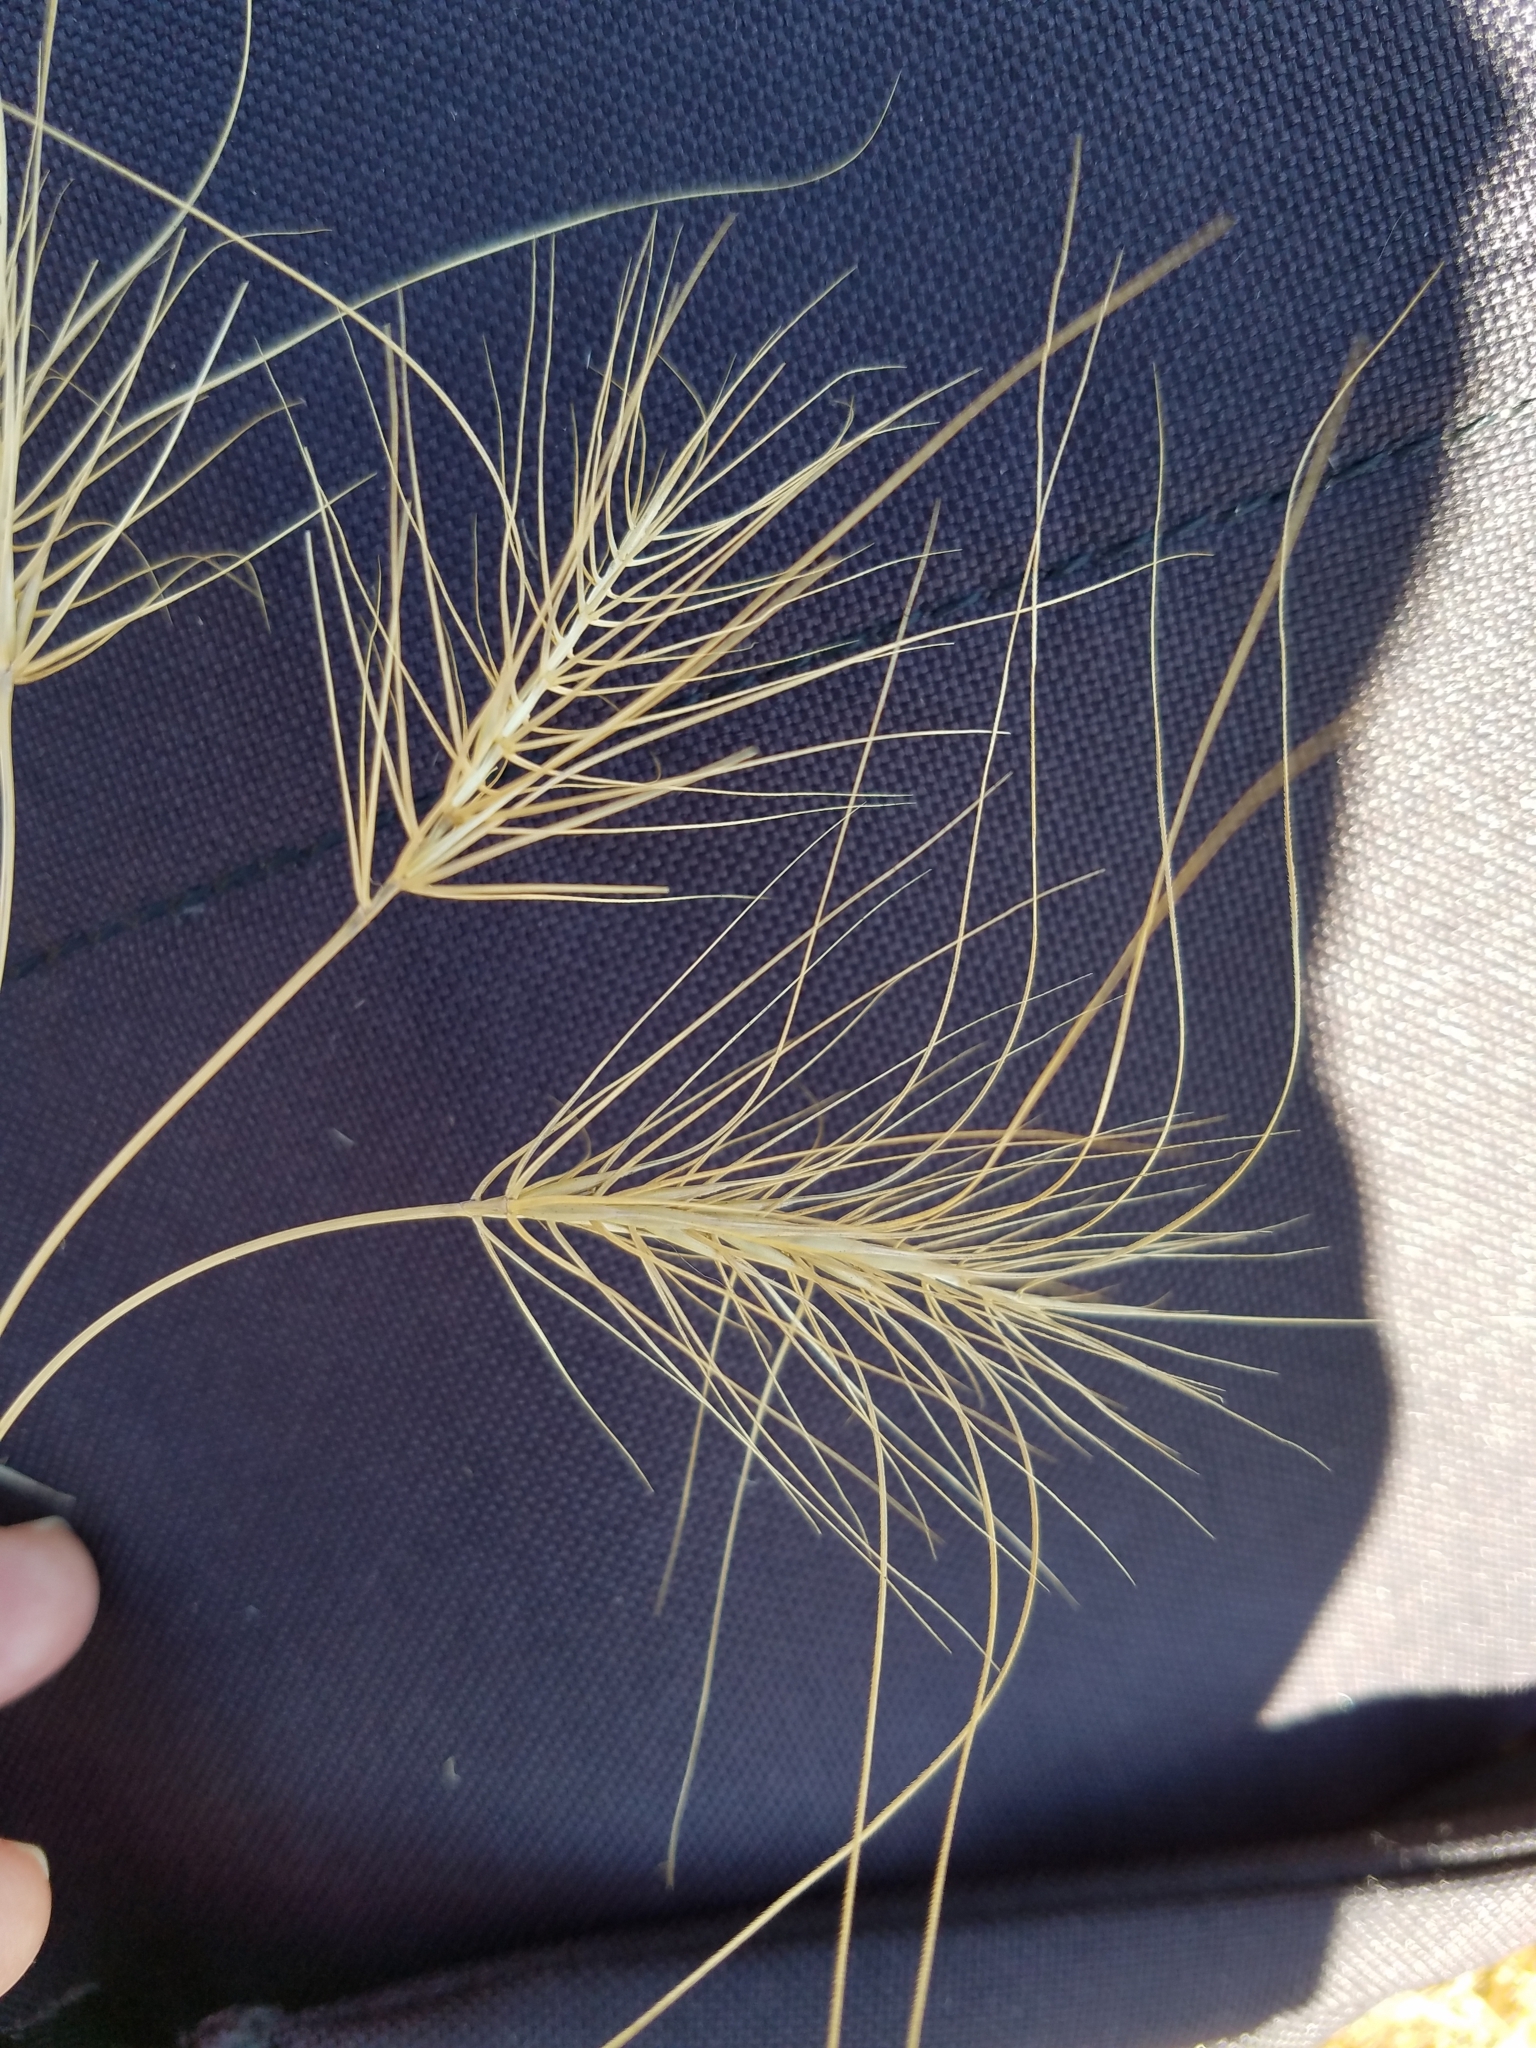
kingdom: Plantae
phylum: Tracheophyta
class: Liliopsida
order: Poales
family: Poaceae
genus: Taeniatherum
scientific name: Taeniatherum caput-medusae
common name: Medusahead
